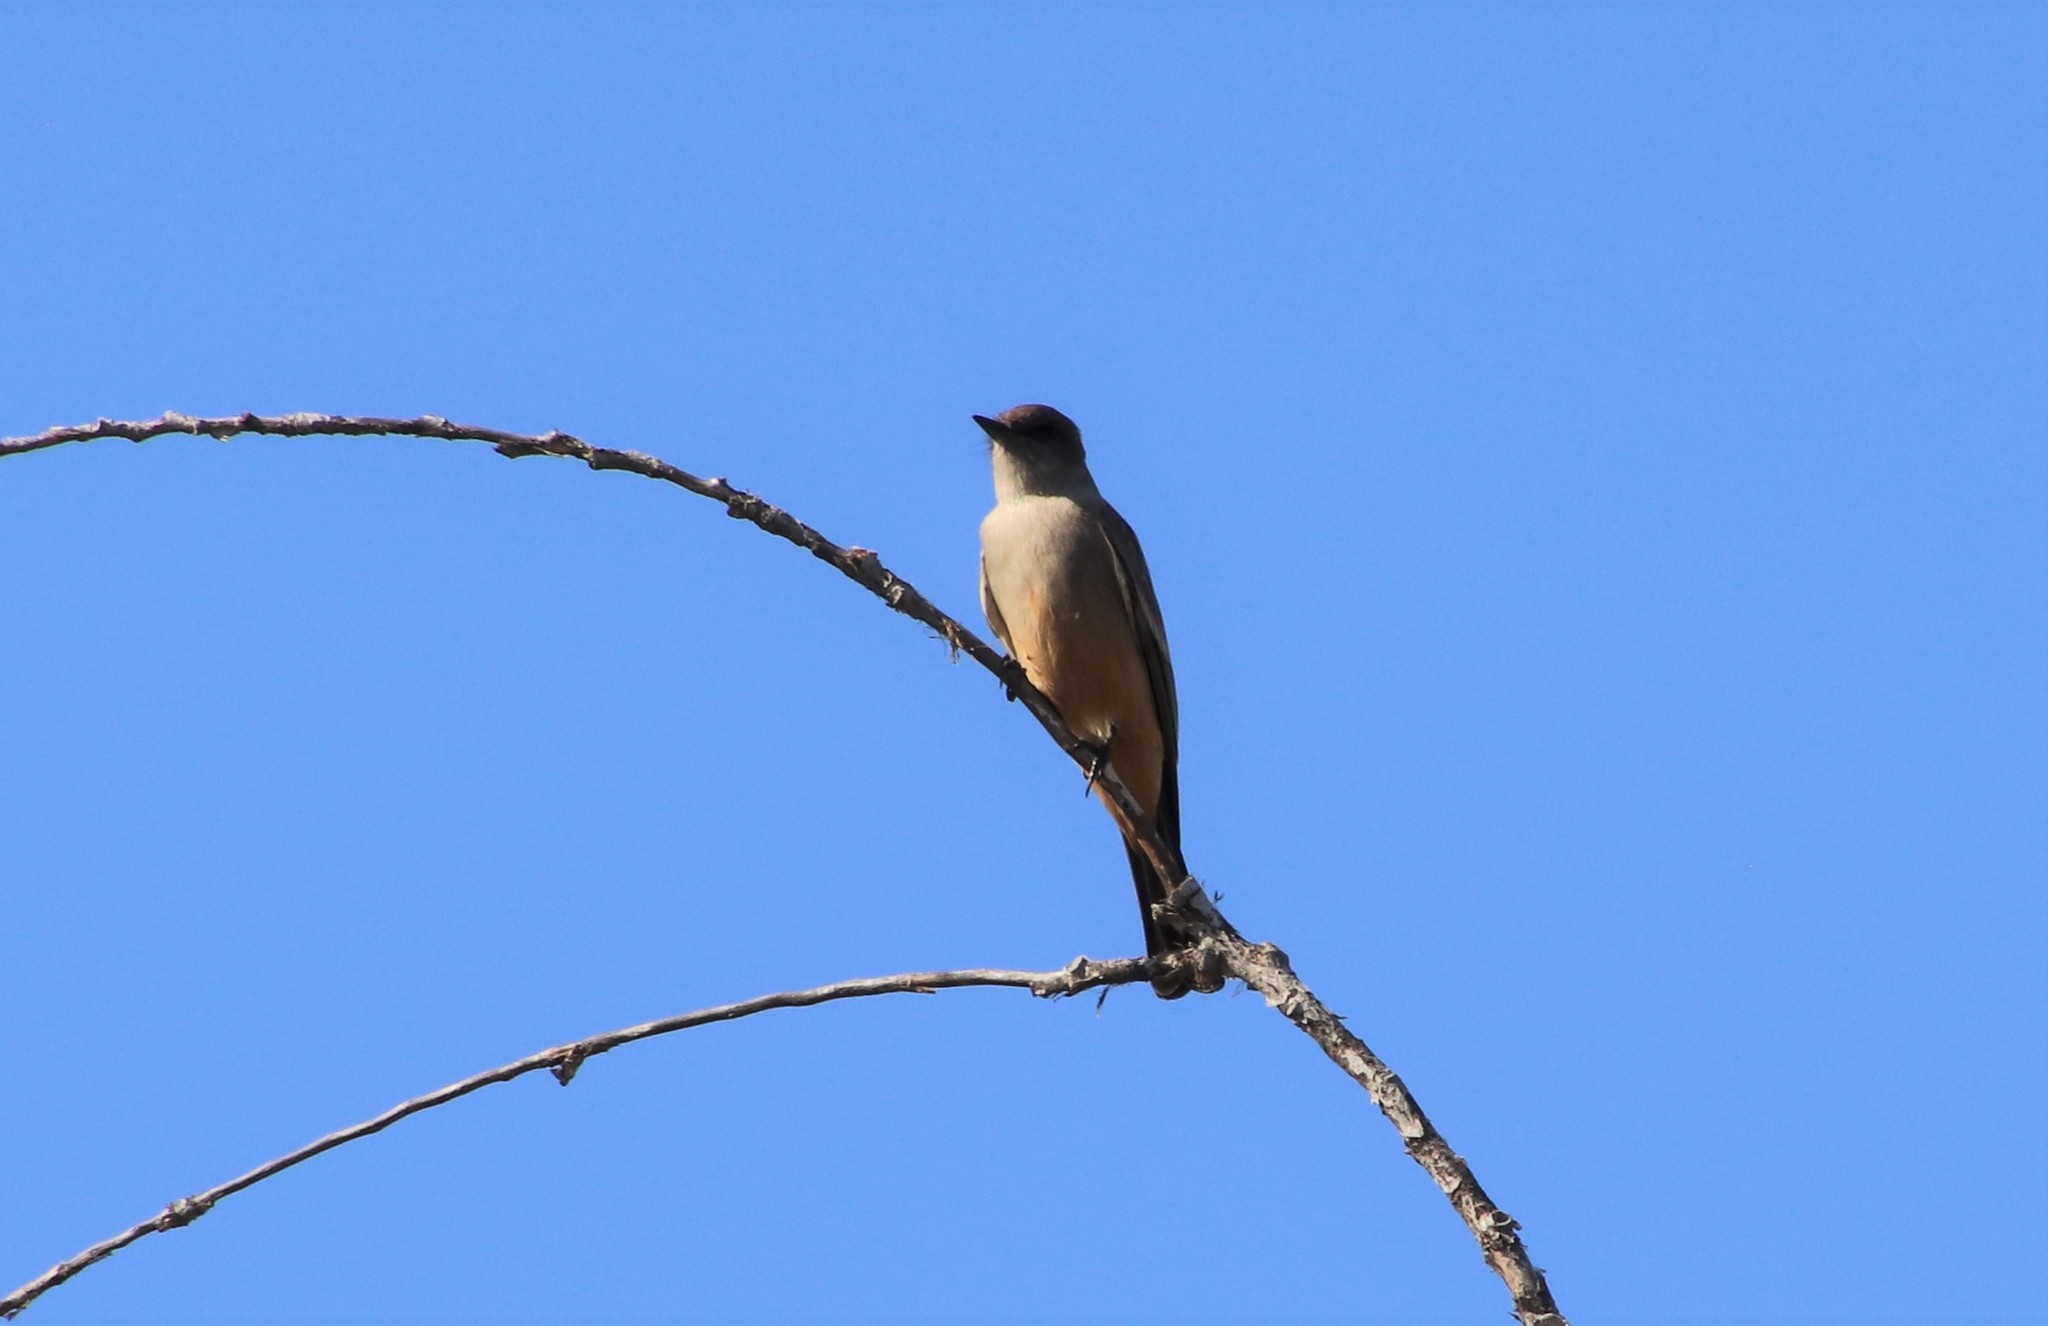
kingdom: Animalia
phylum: Chordata
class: Aves
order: Passeriformes
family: Tyrannidae
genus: Sayornis
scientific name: Sayornis saya
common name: Say's phoebe
